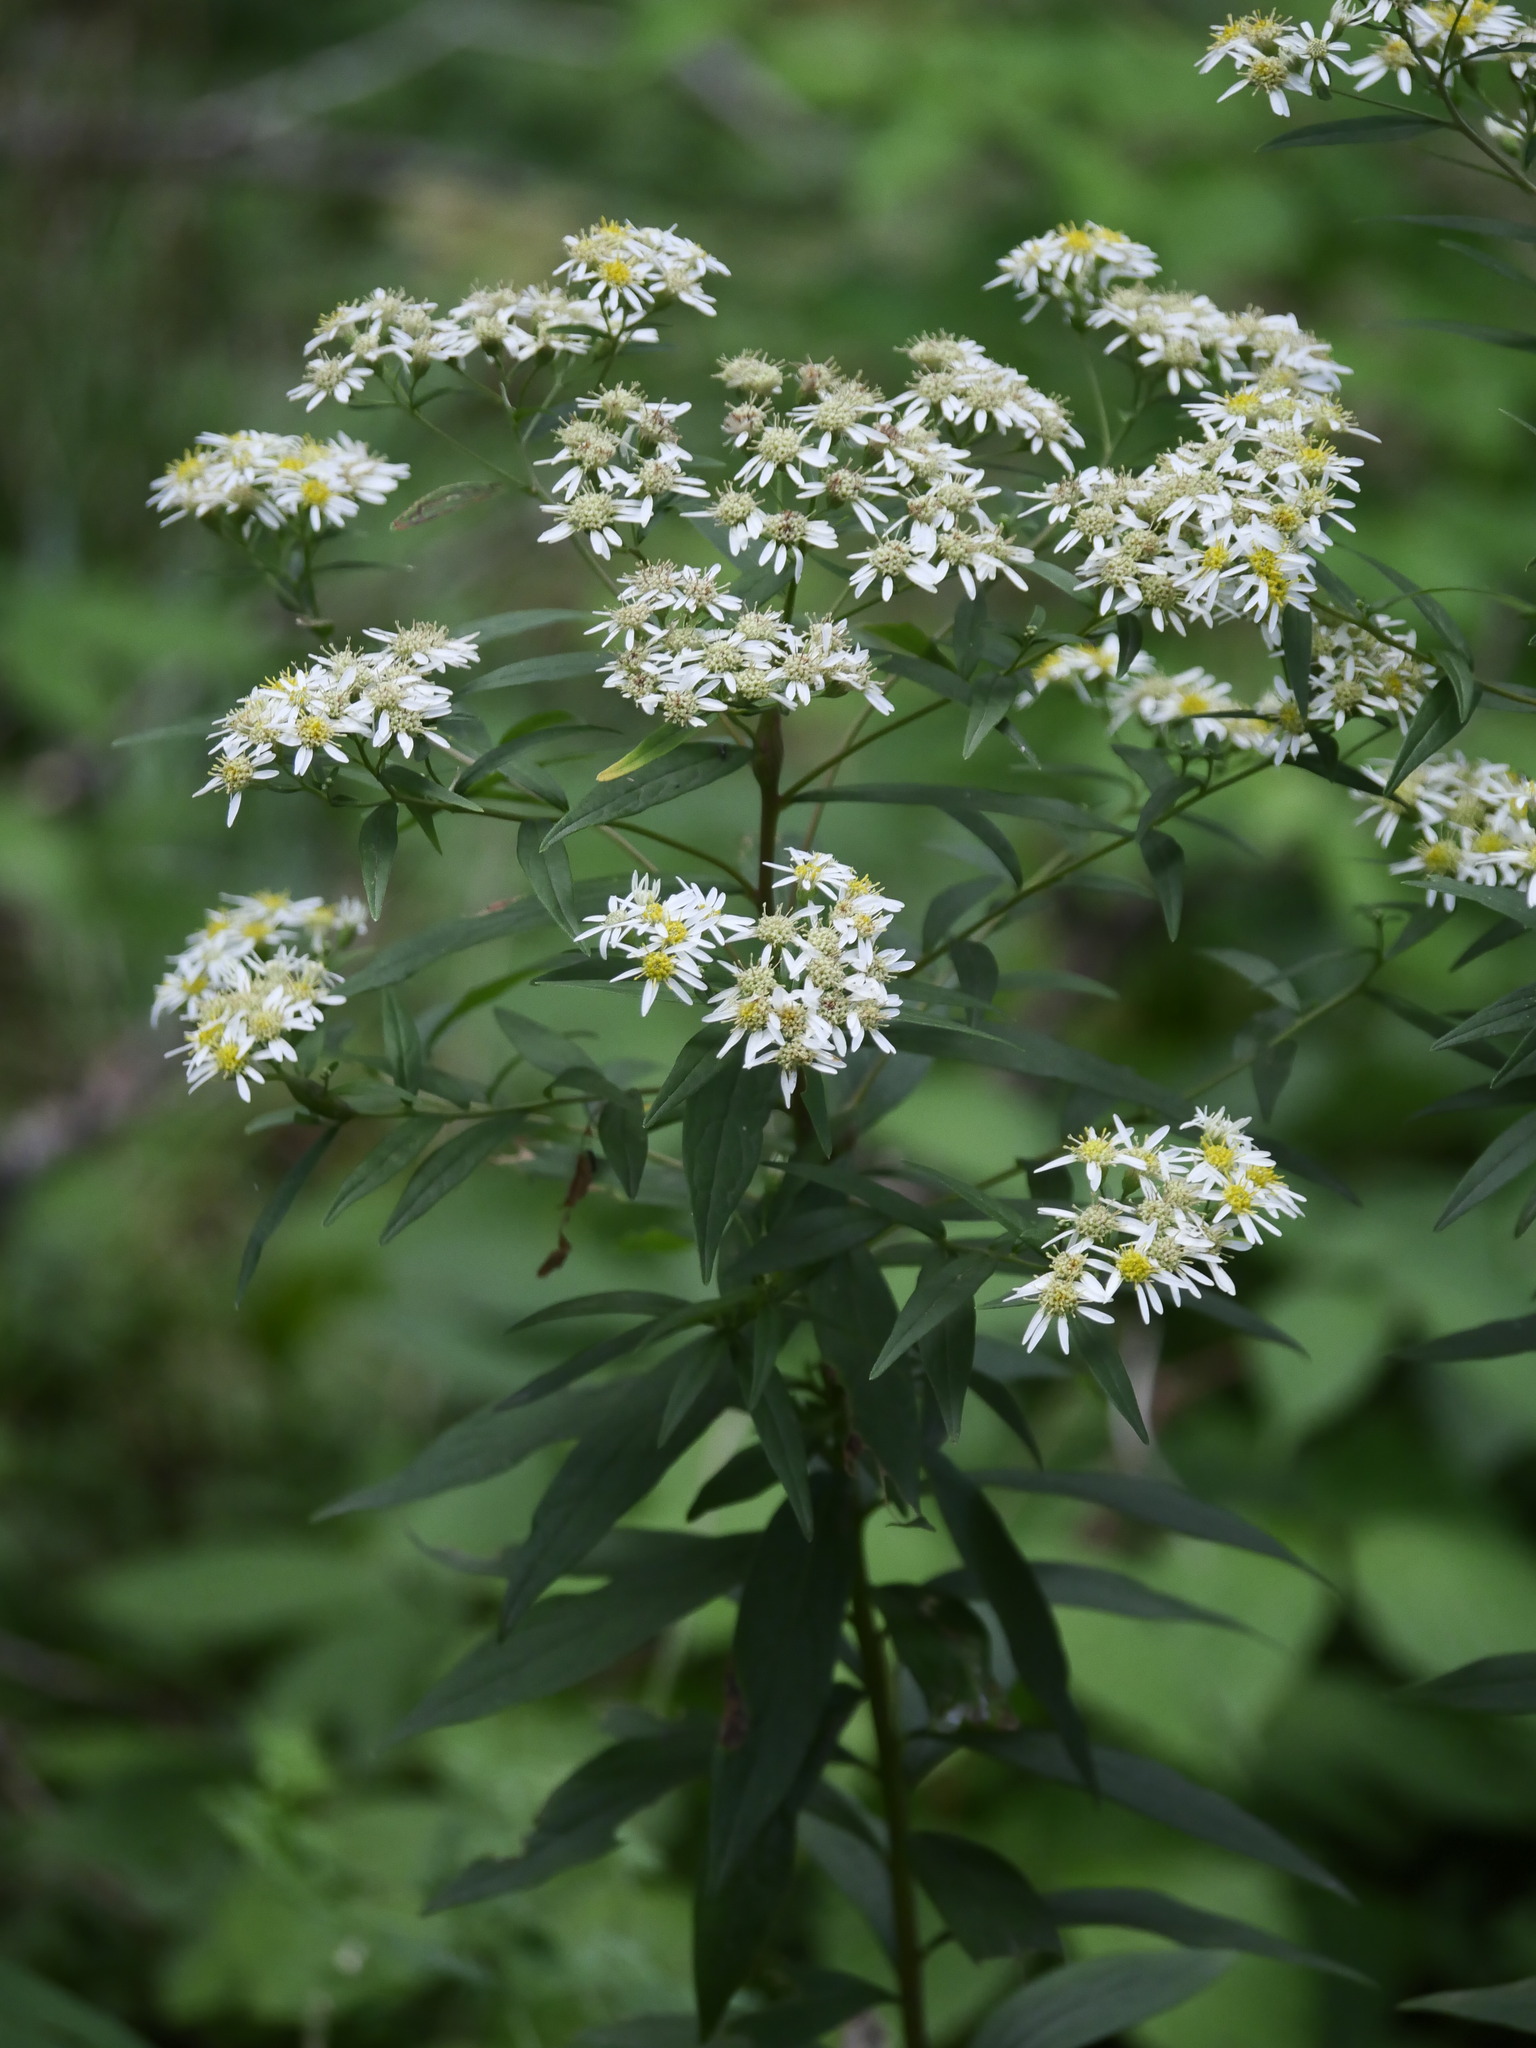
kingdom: Plantae
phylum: Tracheophyta
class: Magnoliopsida
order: Asterales
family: Asteraceae
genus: Doellingeria
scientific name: Doellingeria umbellata
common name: Flat-top white aster
